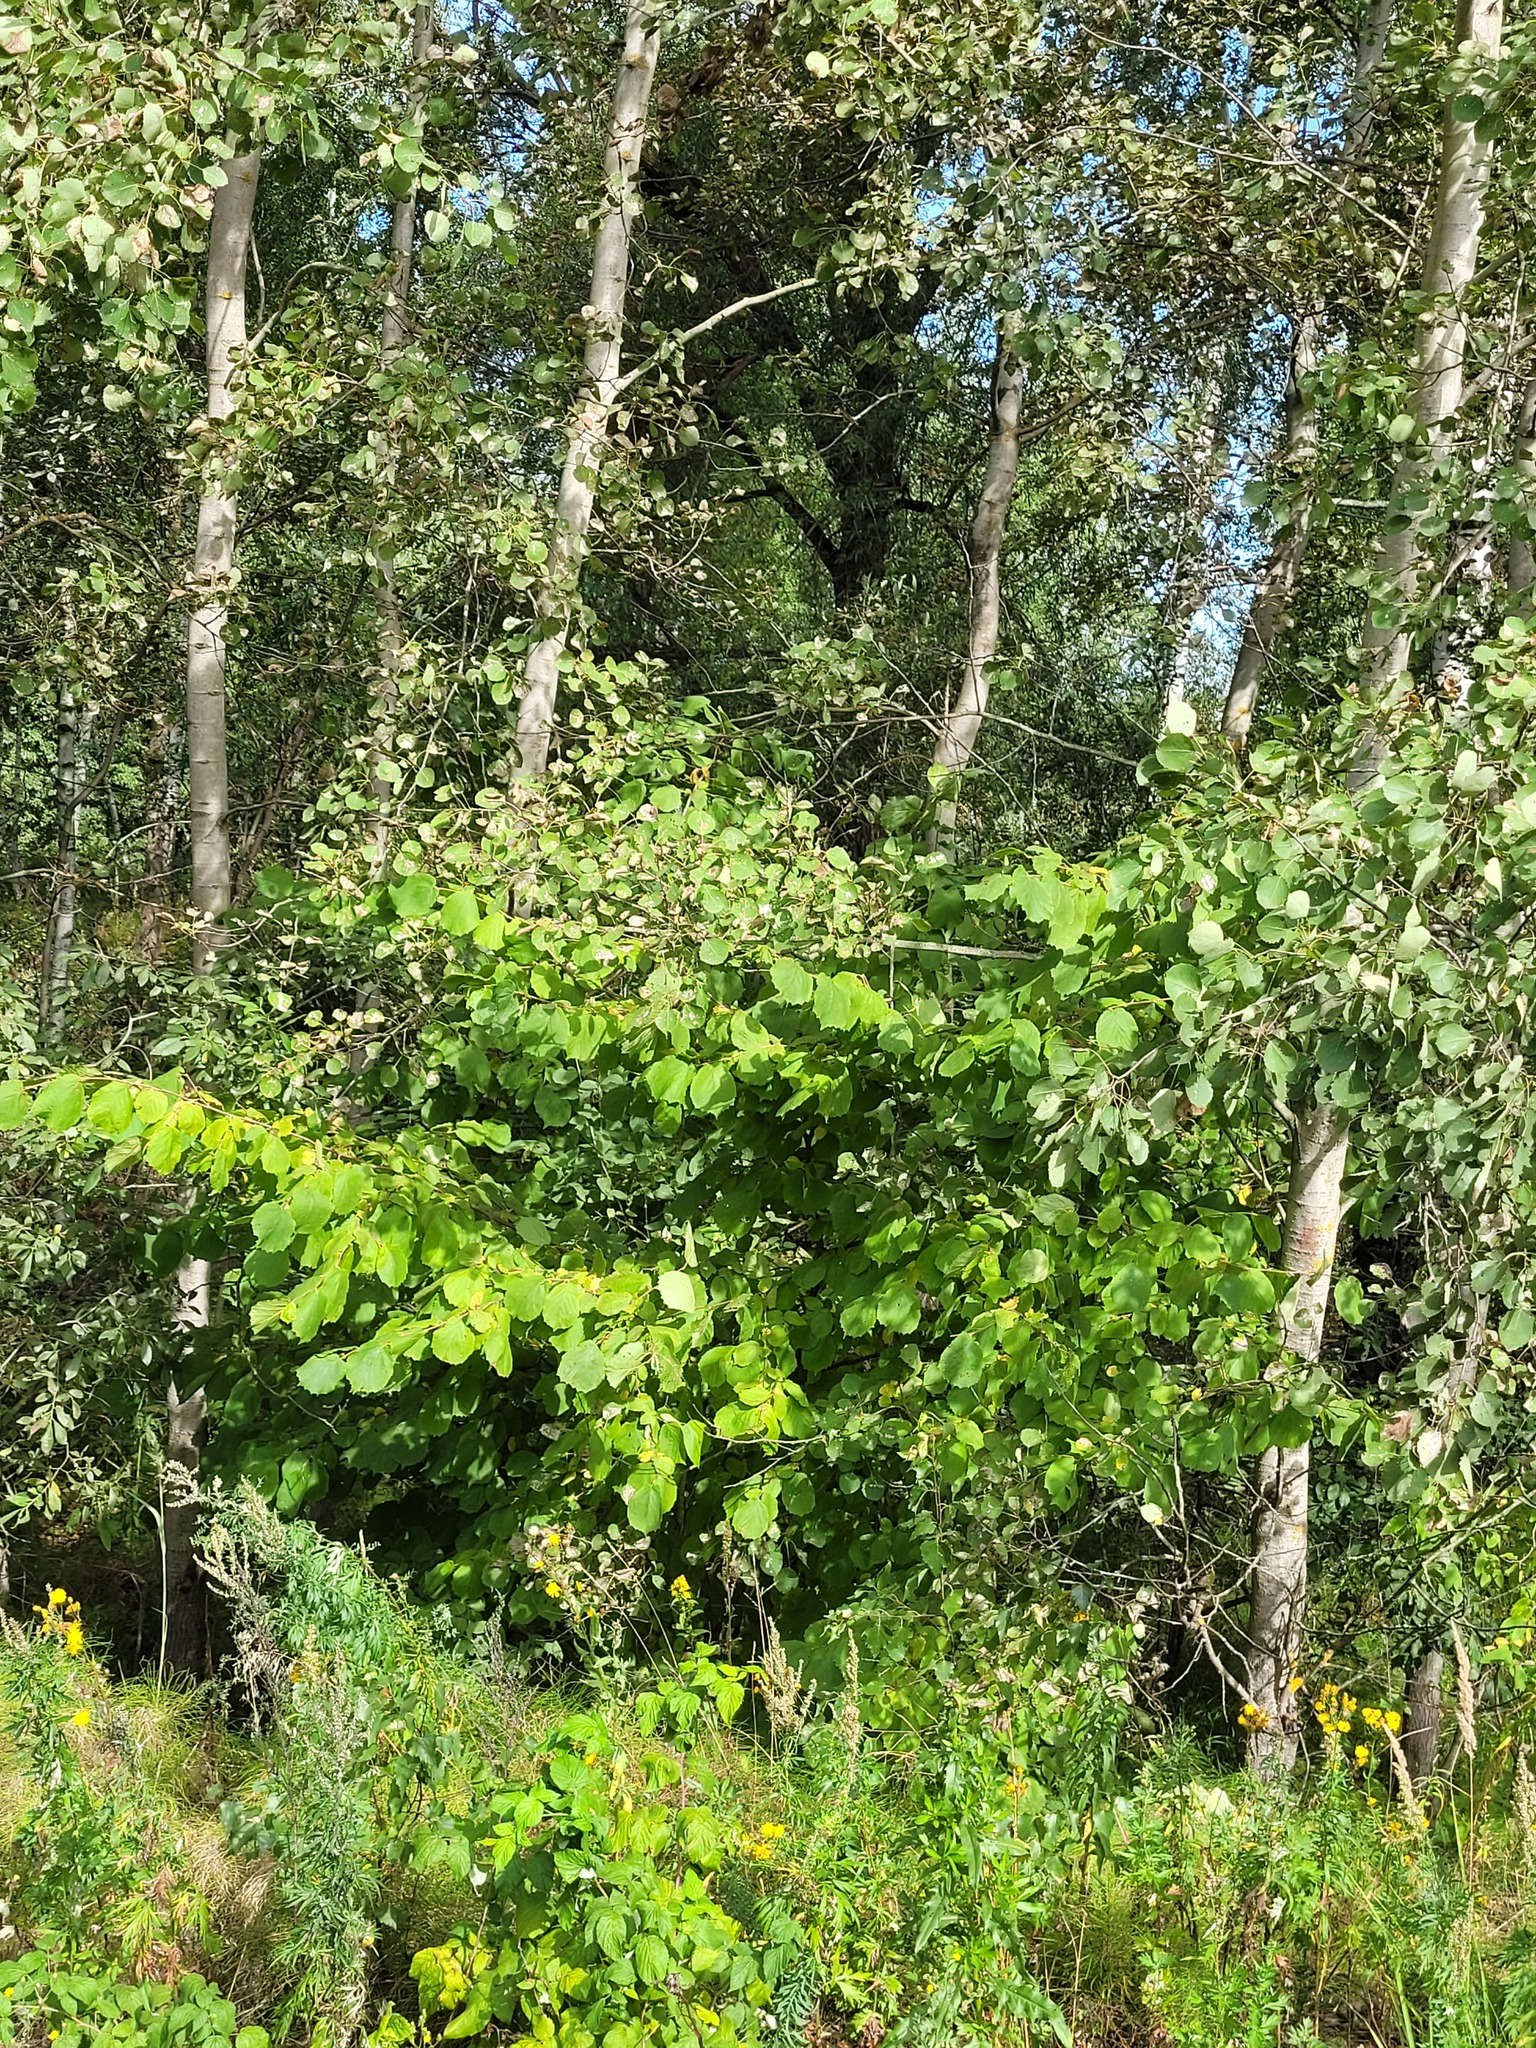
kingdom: Plantae
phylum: Tracheophyta
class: Magnoliopsida
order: Fagales
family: Betulaceae
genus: Corylus
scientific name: Corylus avellana
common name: European hazel
